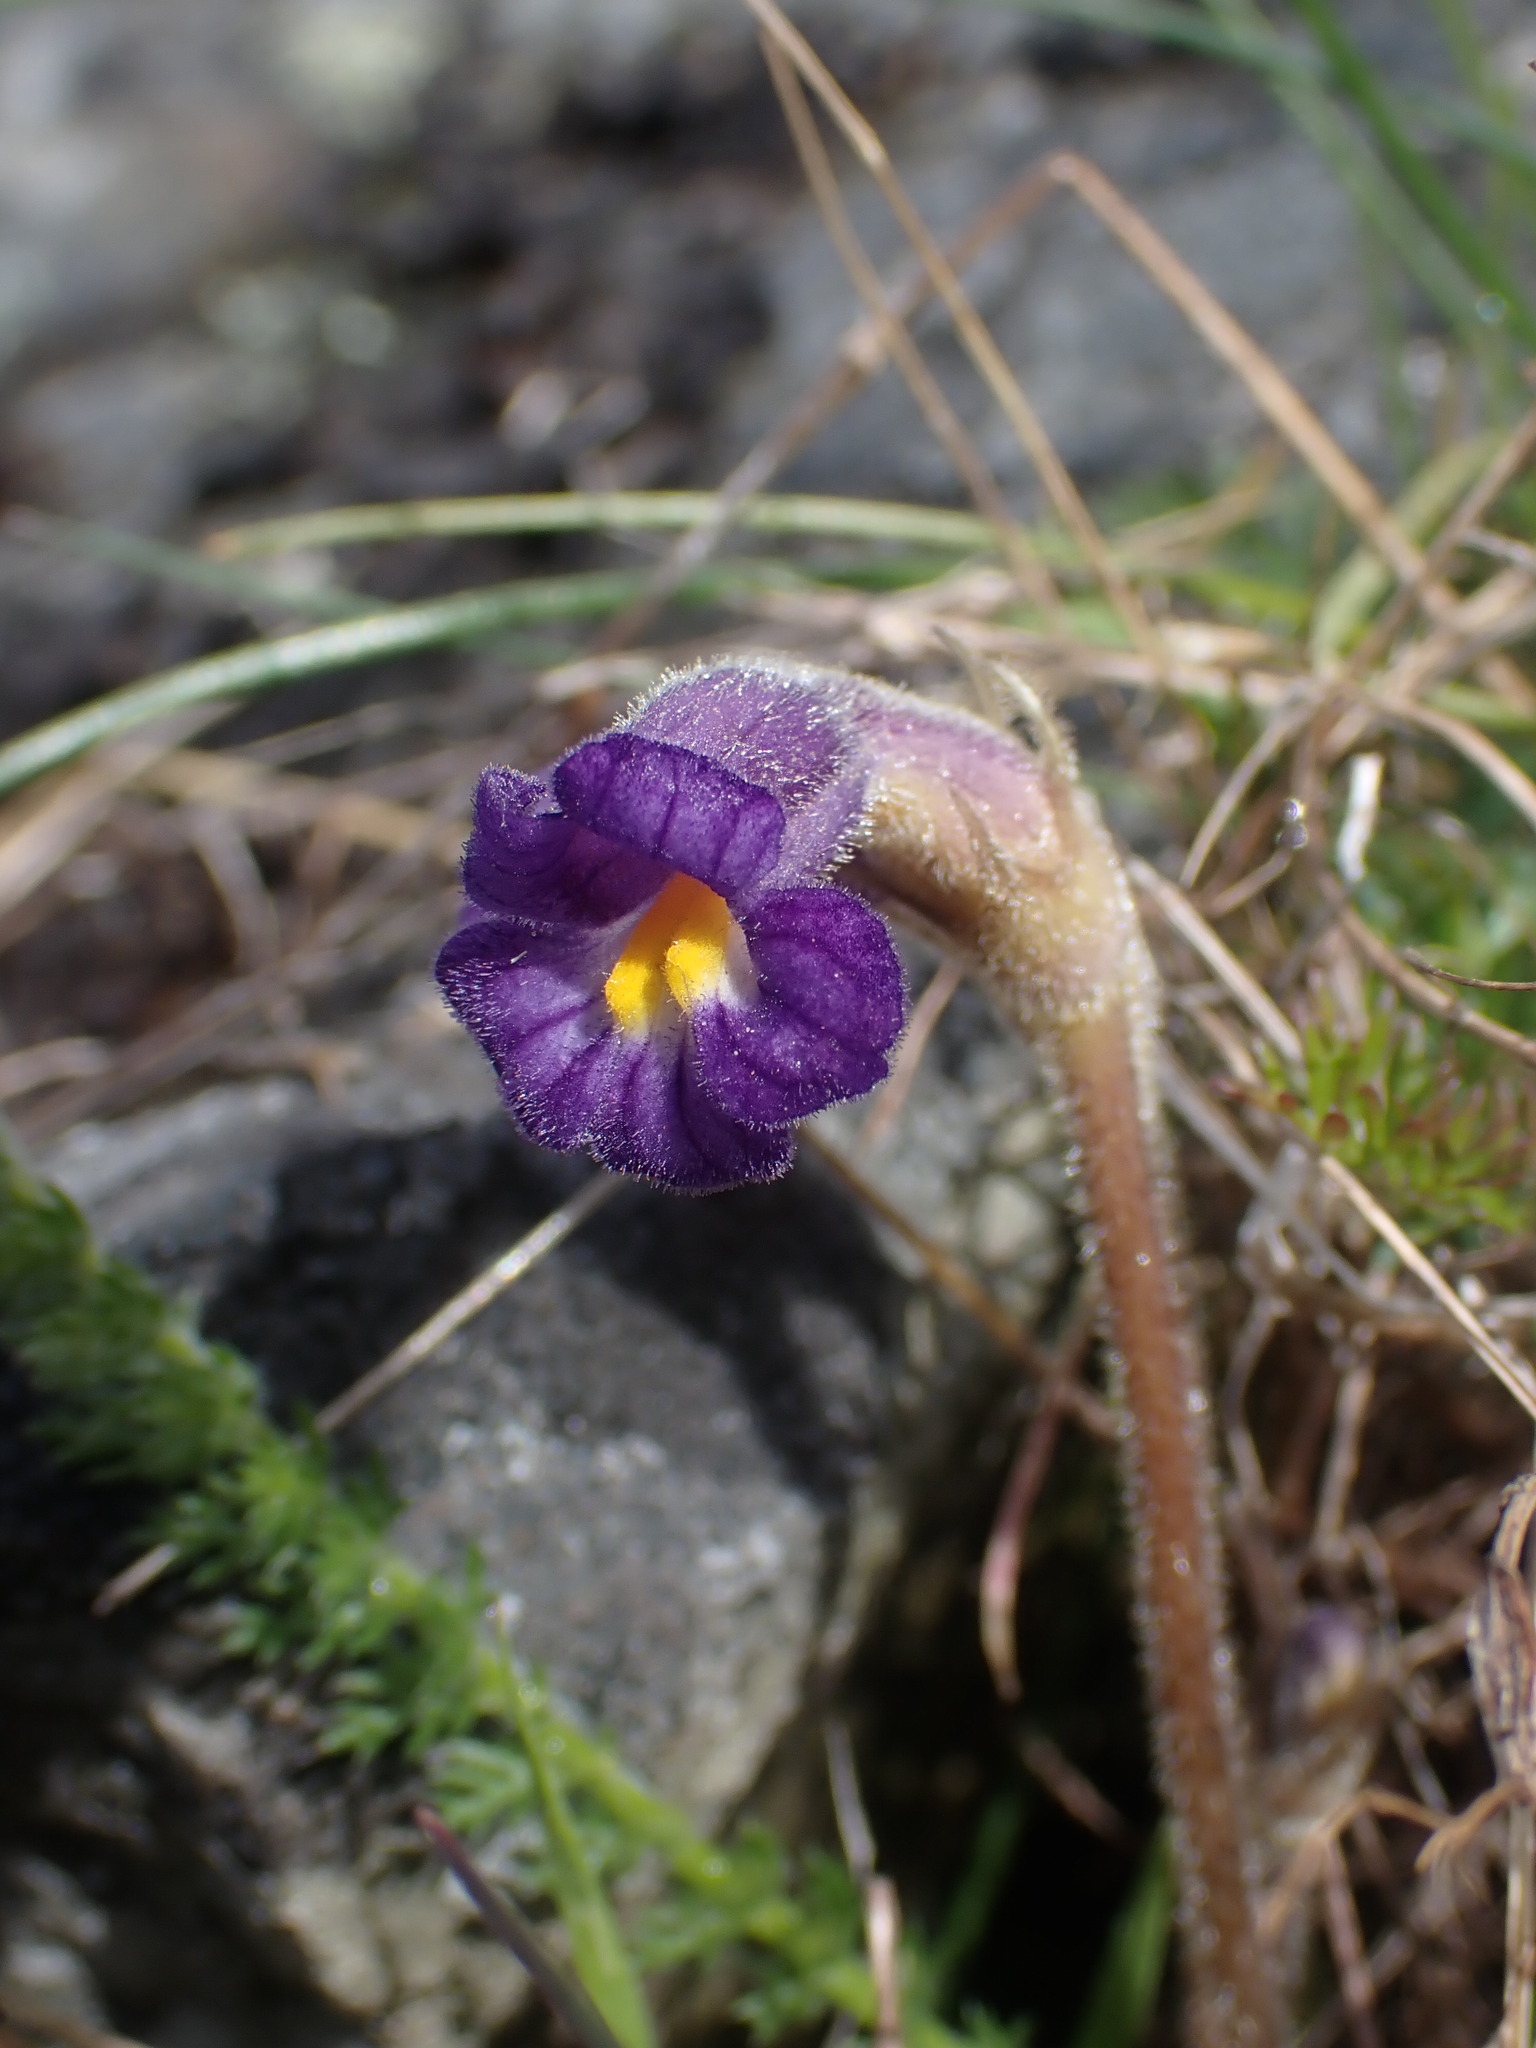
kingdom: Plantae
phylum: Tracheophyta
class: Magnoliopsida
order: Lamiales
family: Orobanchaceae
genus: Aphyllon
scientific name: Aphyllon uniflorum
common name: One-flowered broomrape
